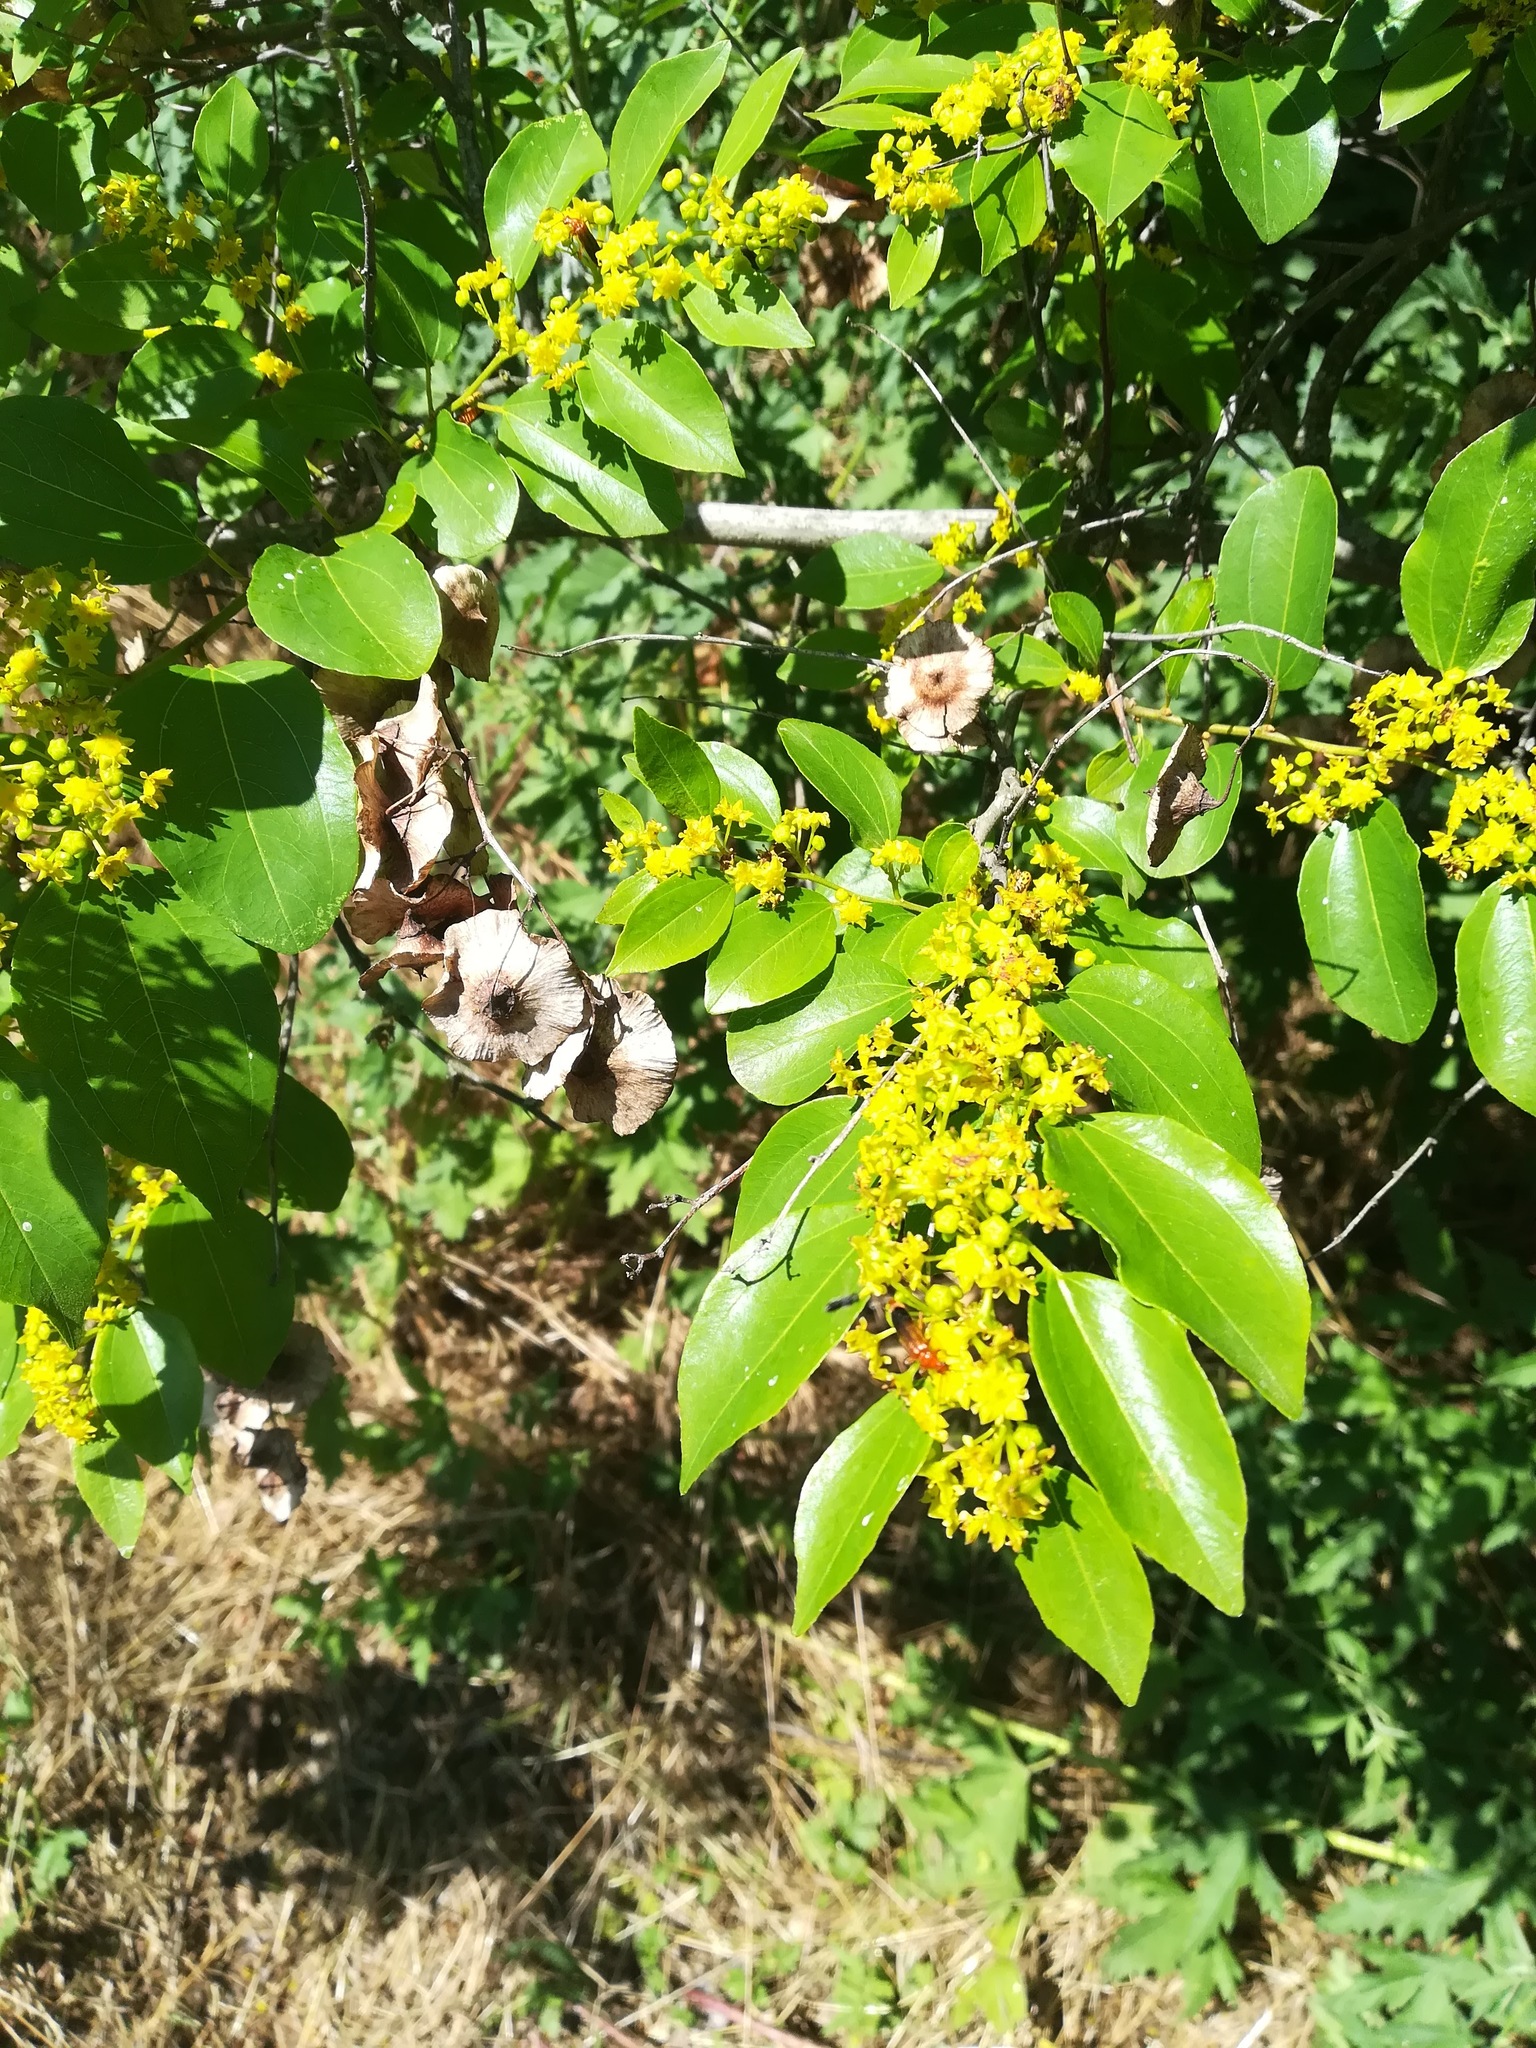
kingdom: Plantae
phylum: Tracheophyta
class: Magnoliopsida
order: Rosales
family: Rhamnaceae
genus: Paliurus
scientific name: Paliurus spina-christi
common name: Jeruselem thorn
